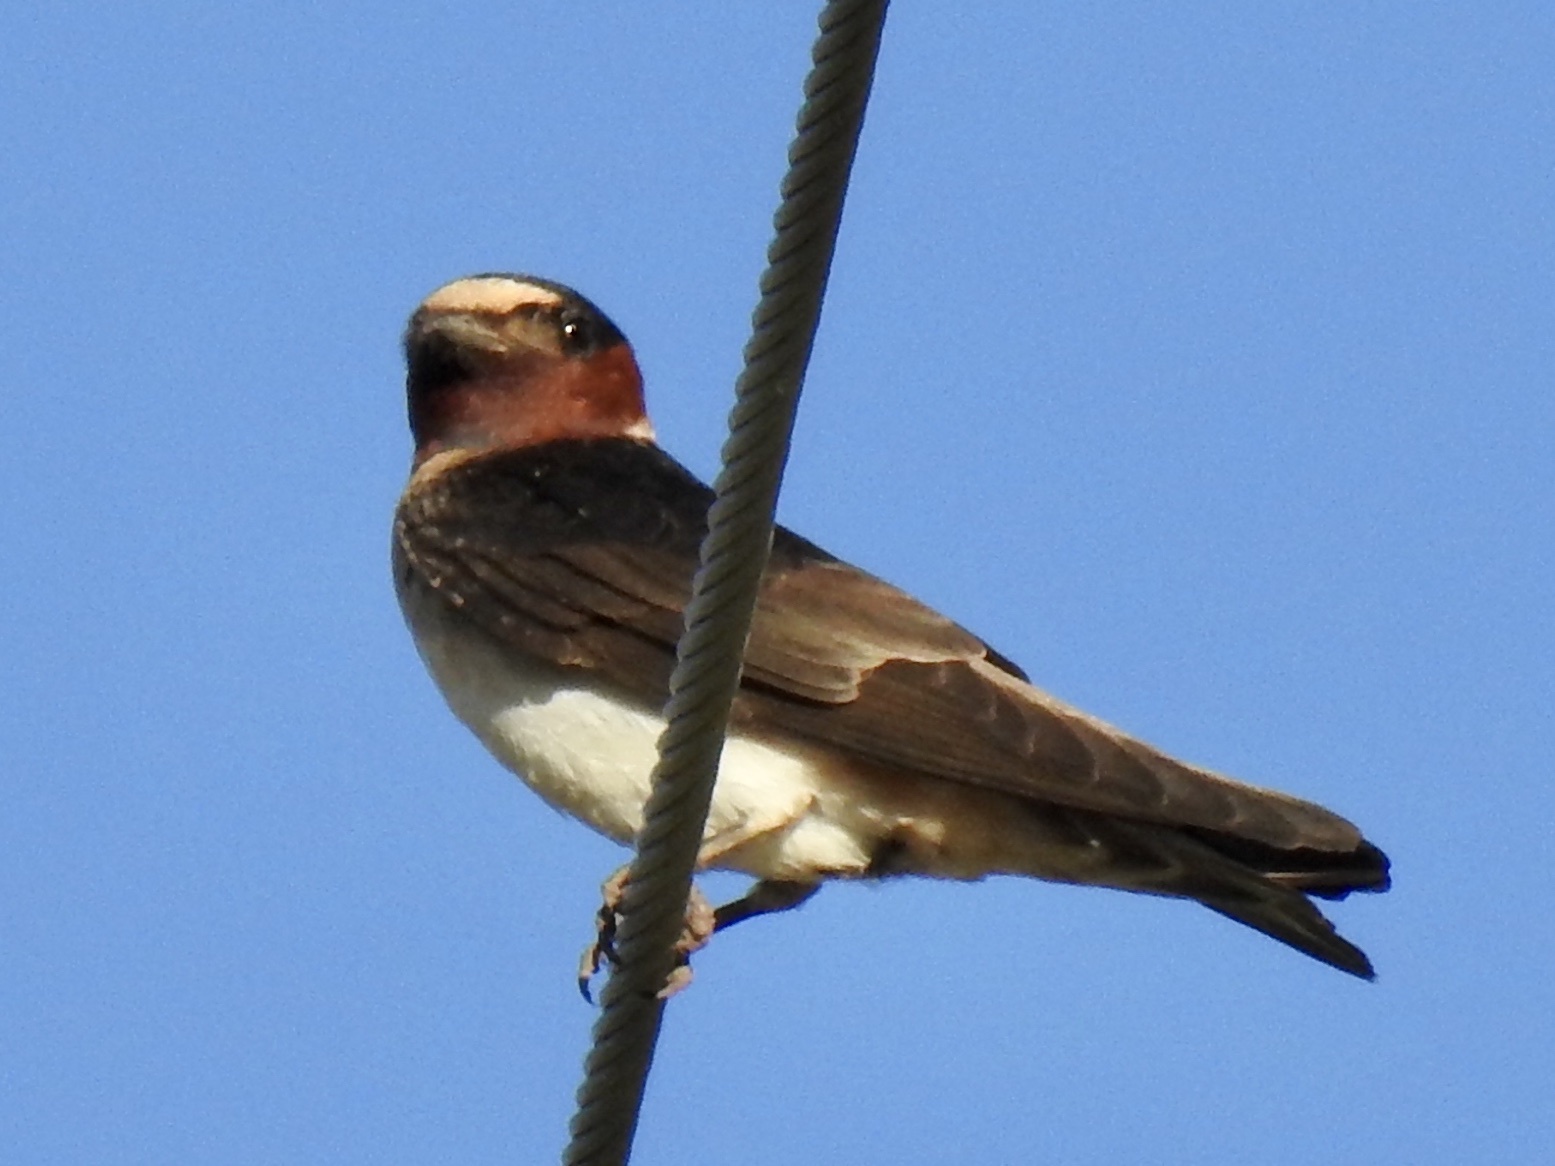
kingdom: Animalia
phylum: Chordata
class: Aves
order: Passeriformes
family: Hirundinidae
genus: Petrochelidon
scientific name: Petrochelidon pyrrhonota
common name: American cliff swallow
